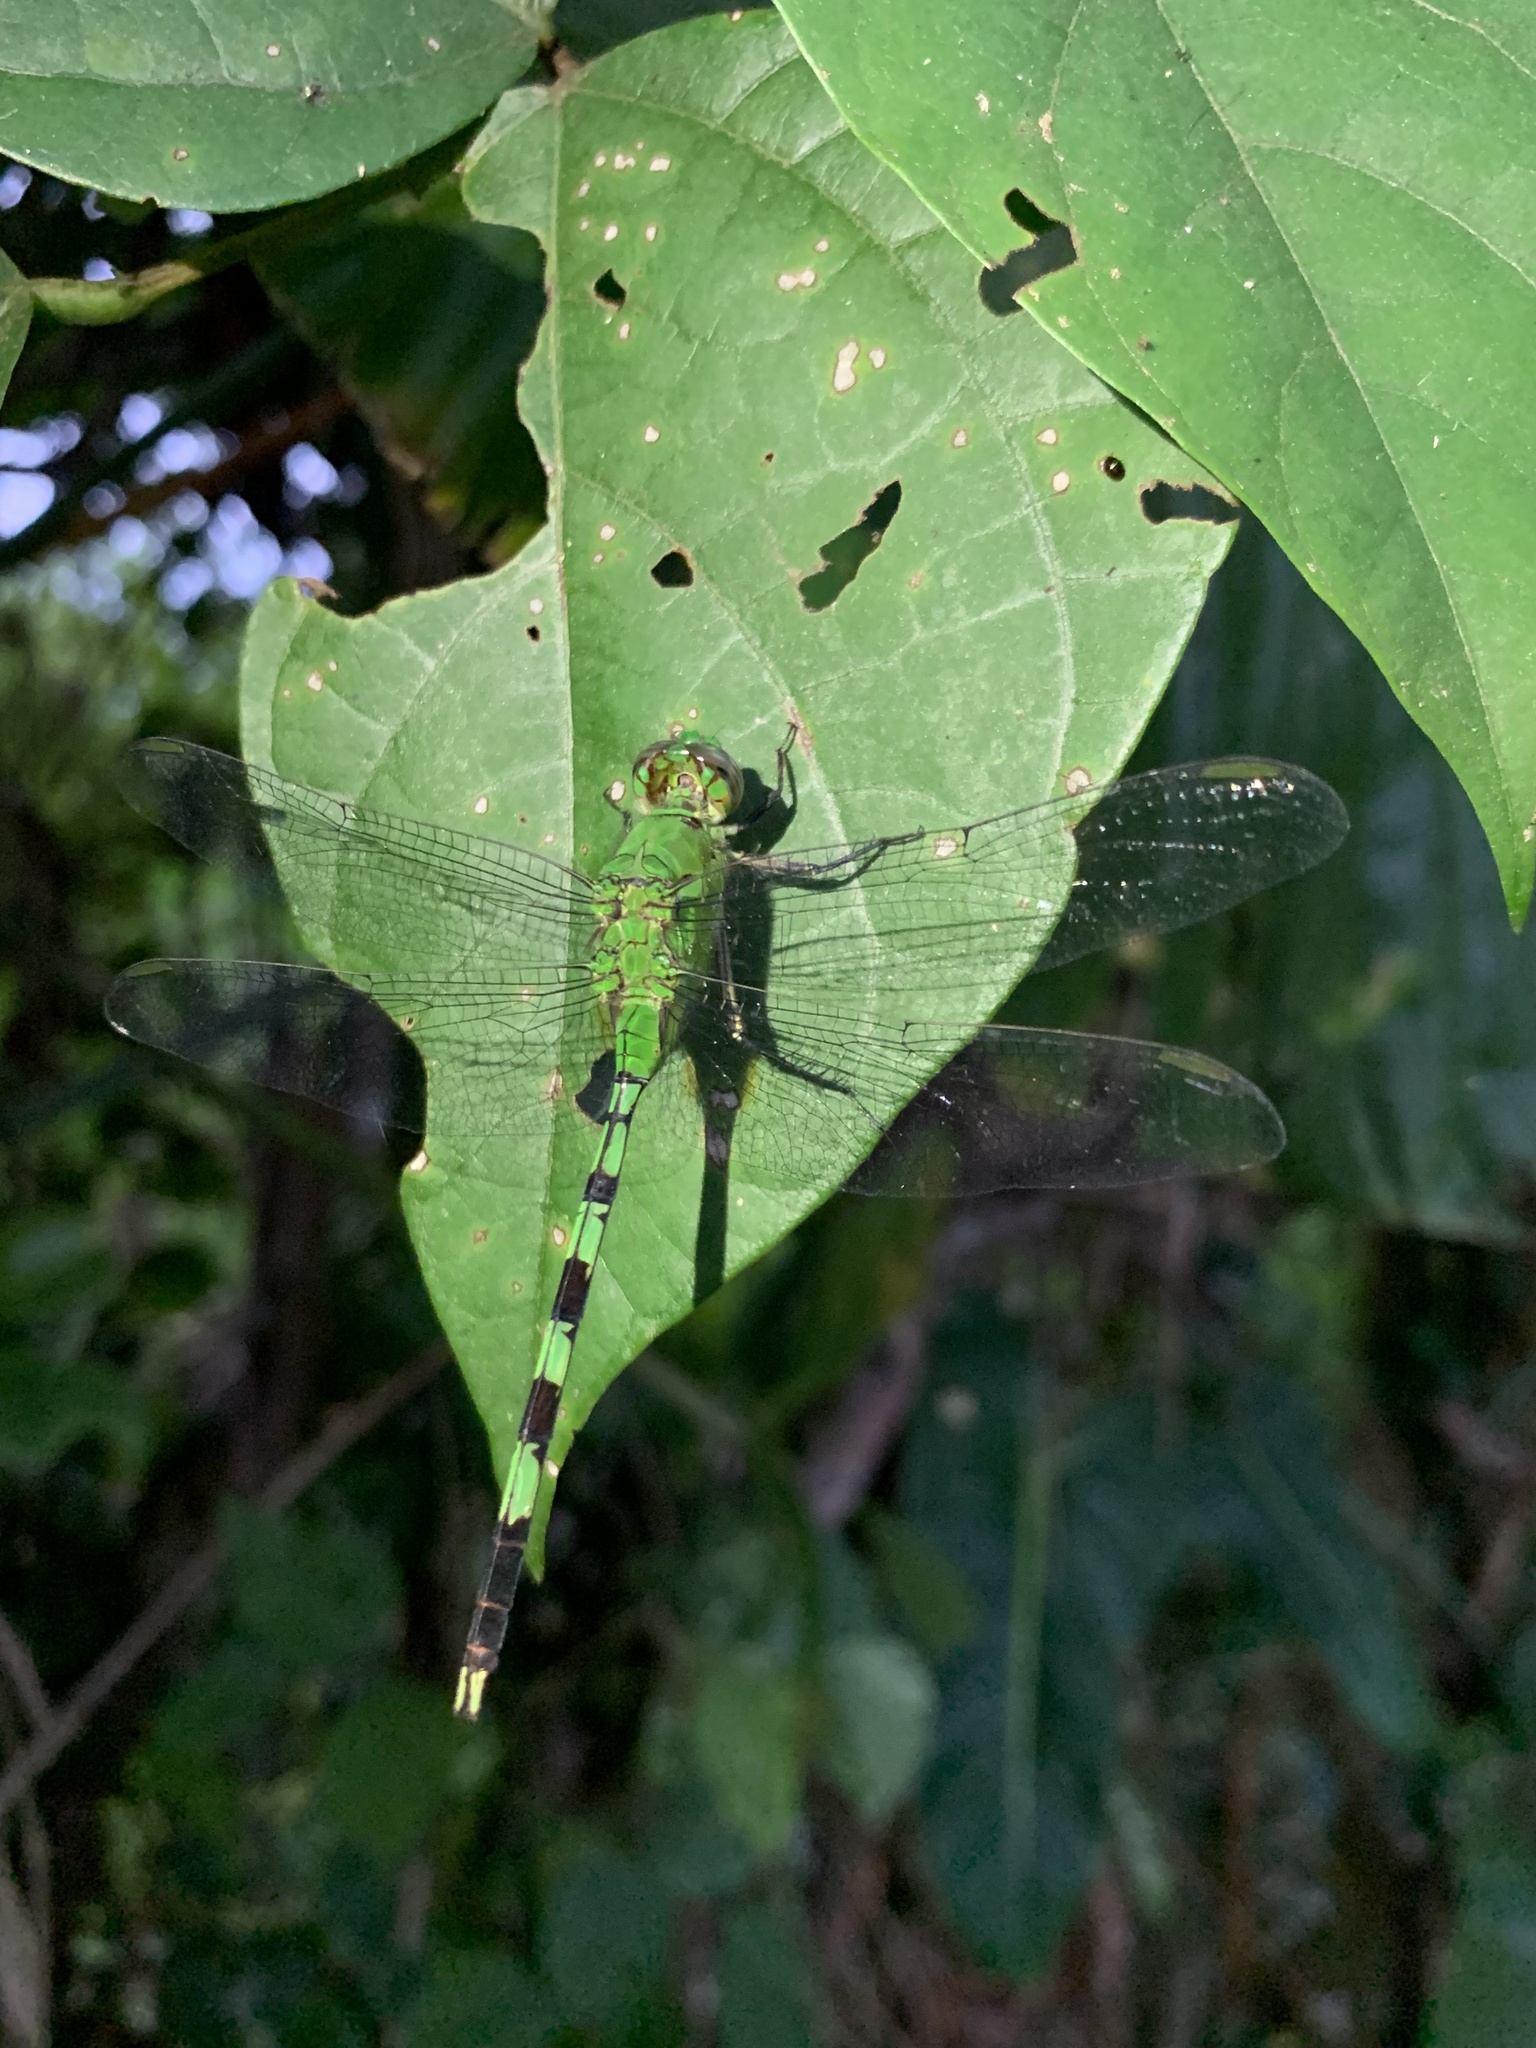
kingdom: Animalia
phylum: Arthropoda
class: Insecta
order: Odonata
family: Libellulidae
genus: Erythemis
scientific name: Erythemis vesiculosa
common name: Great pondhawk
